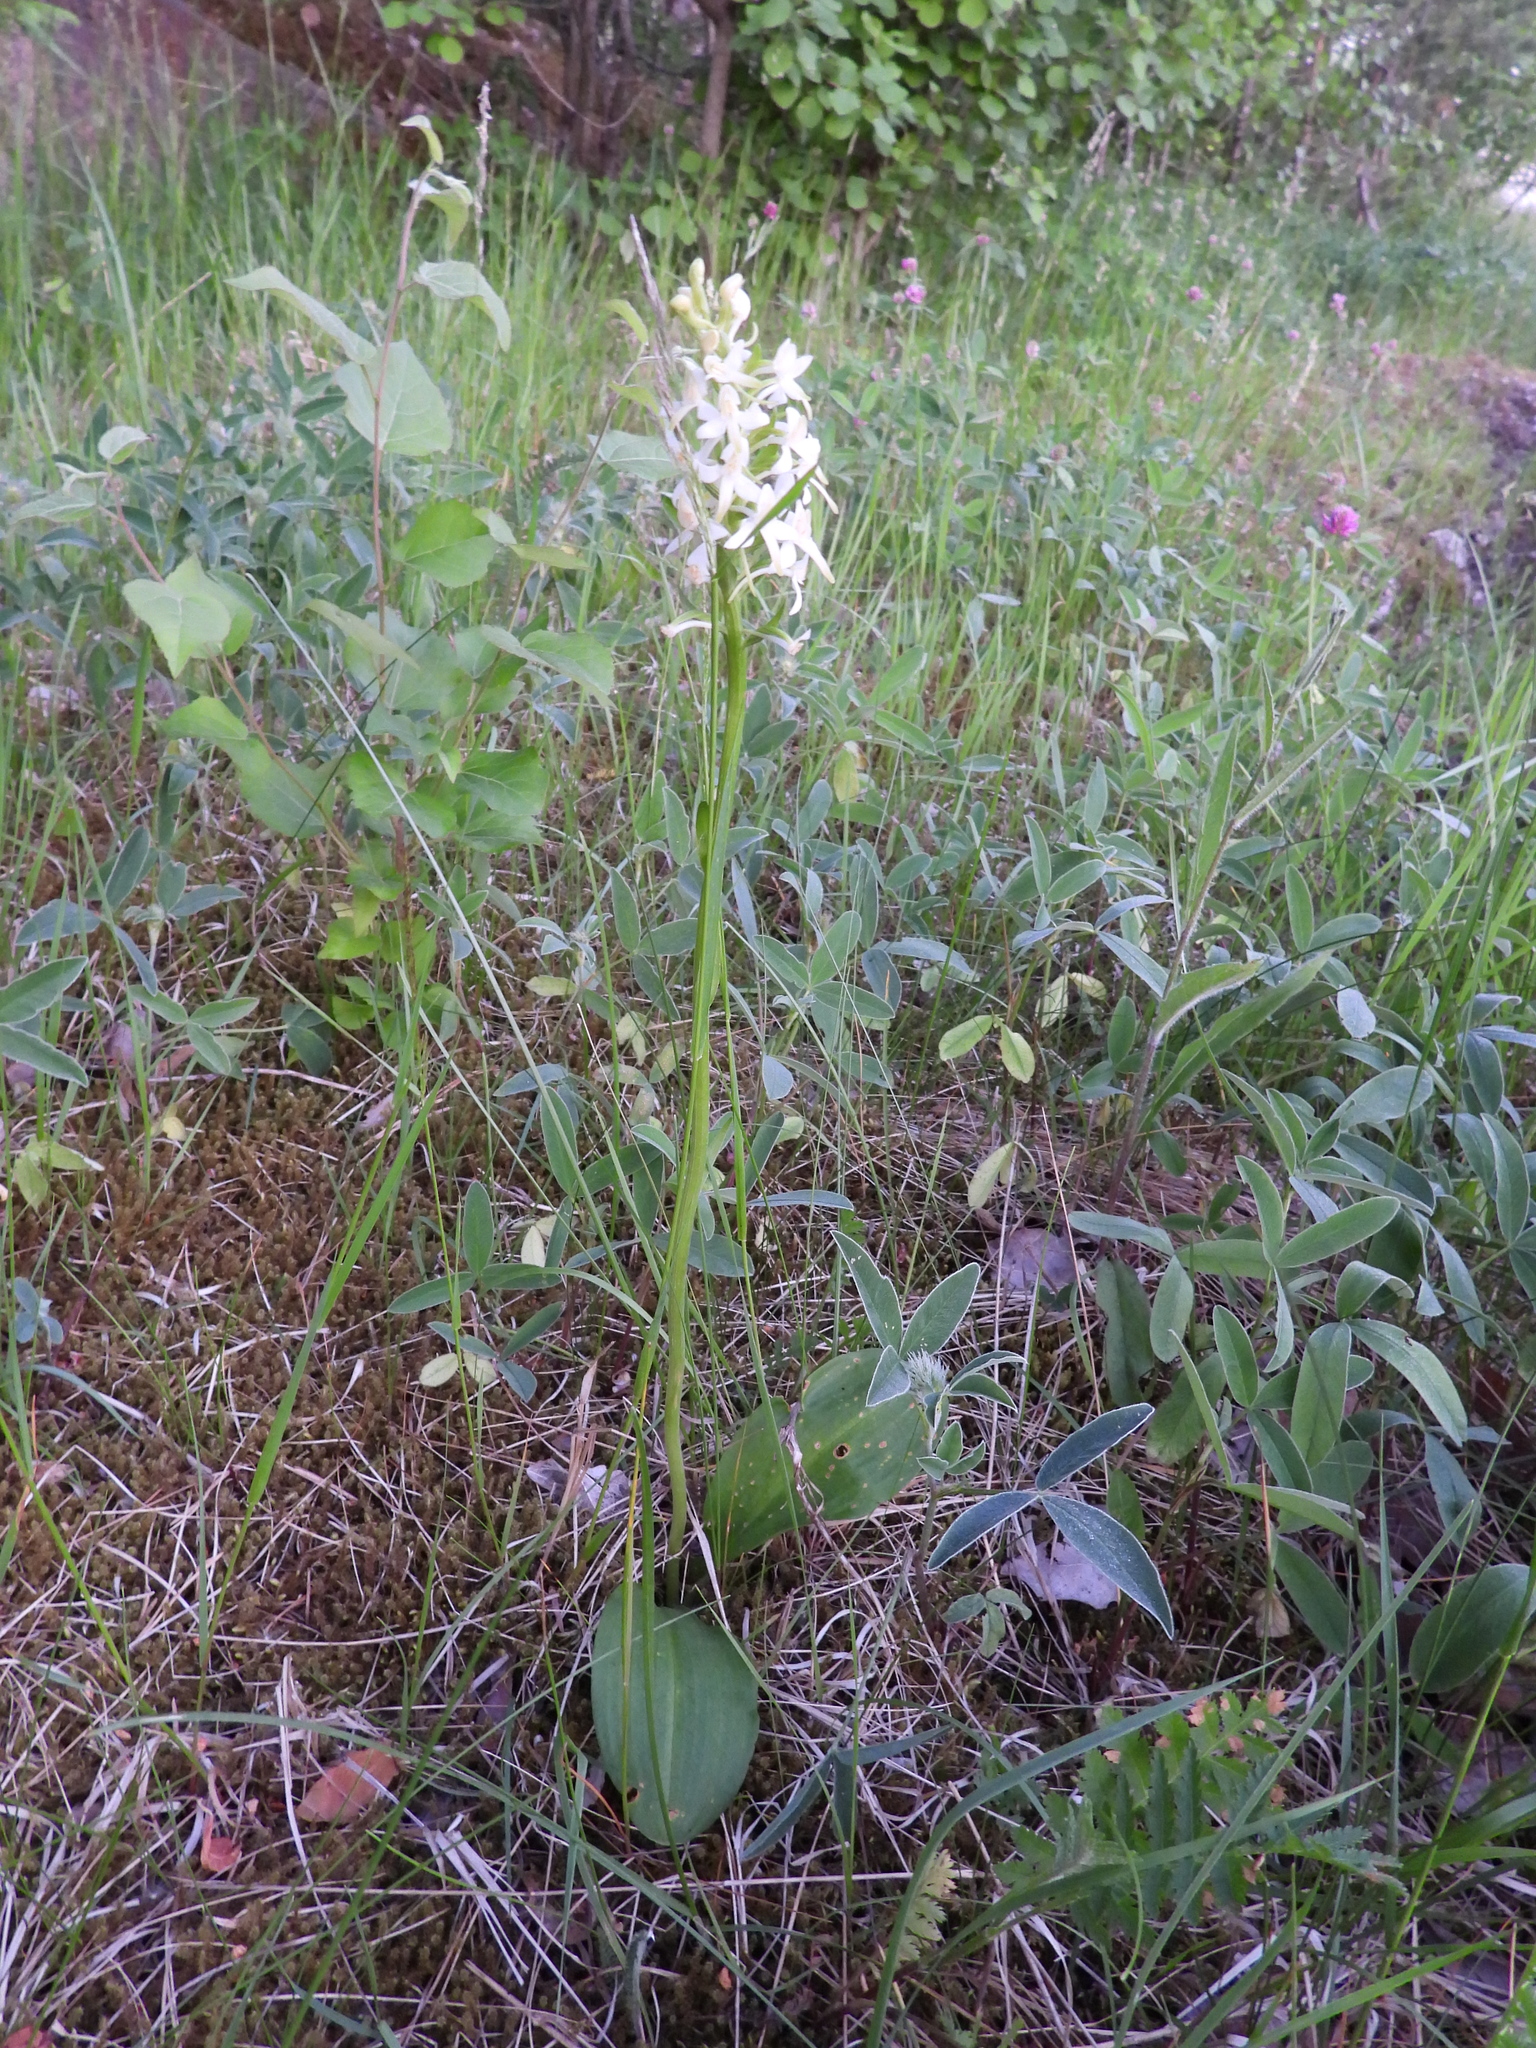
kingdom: Plantae
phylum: Tracheophyta
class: Liliopsida
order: Asparagales
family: Orchidaceae
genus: Platanthera
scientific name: Platanthera bifolia
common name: Lesser butterfly-orchid
